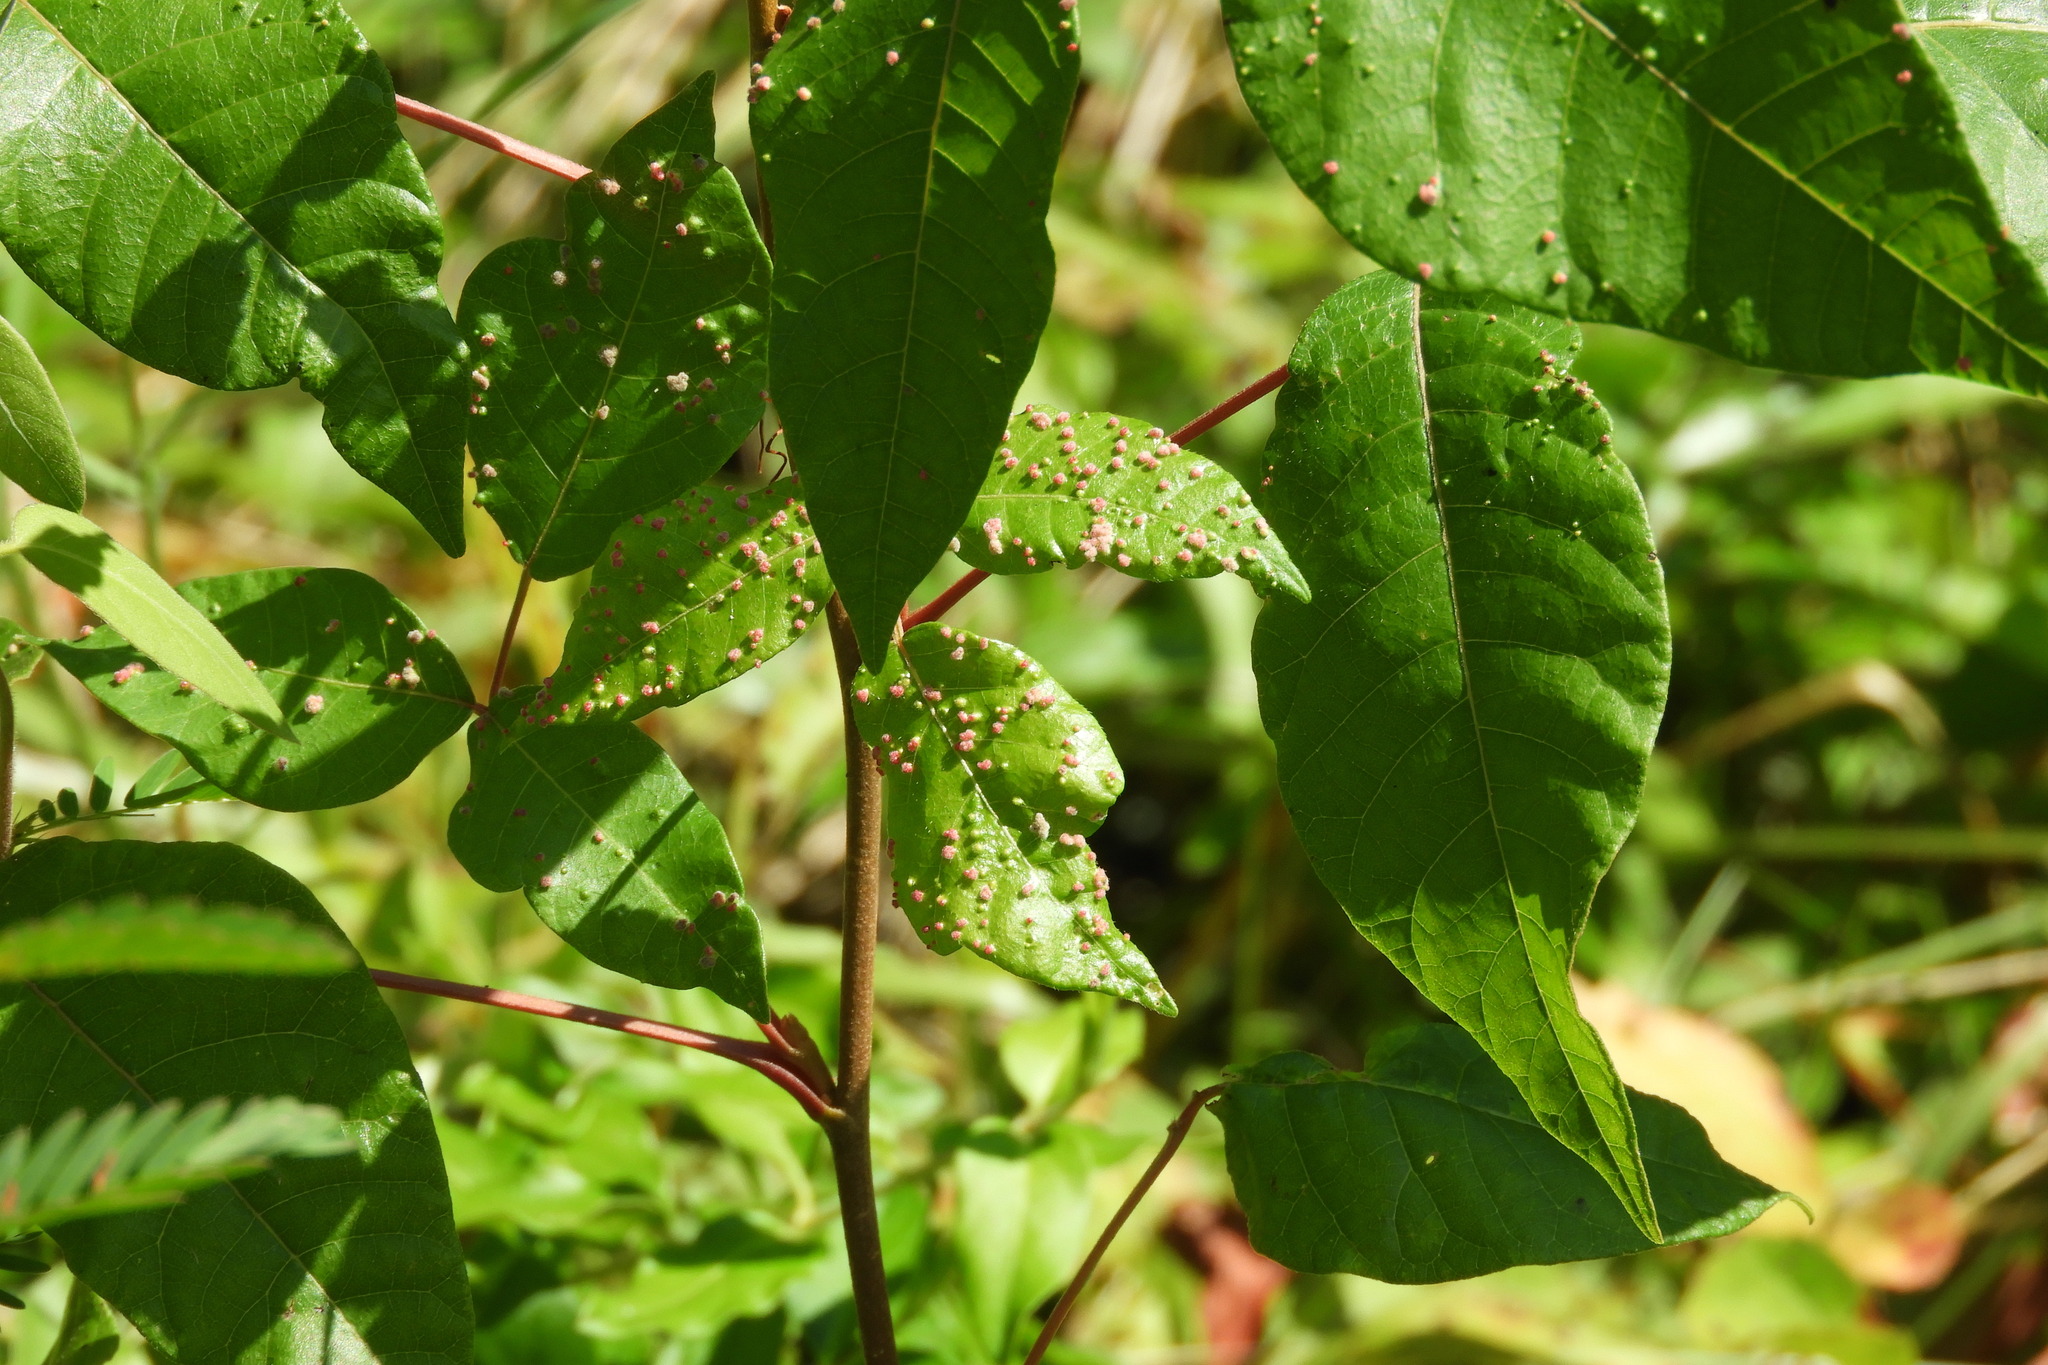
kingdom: Animalia
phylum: Arthropoda
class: Arachnida
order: Trombidiformes
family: Eriophyidae
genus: Aculops
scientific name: Aculops
